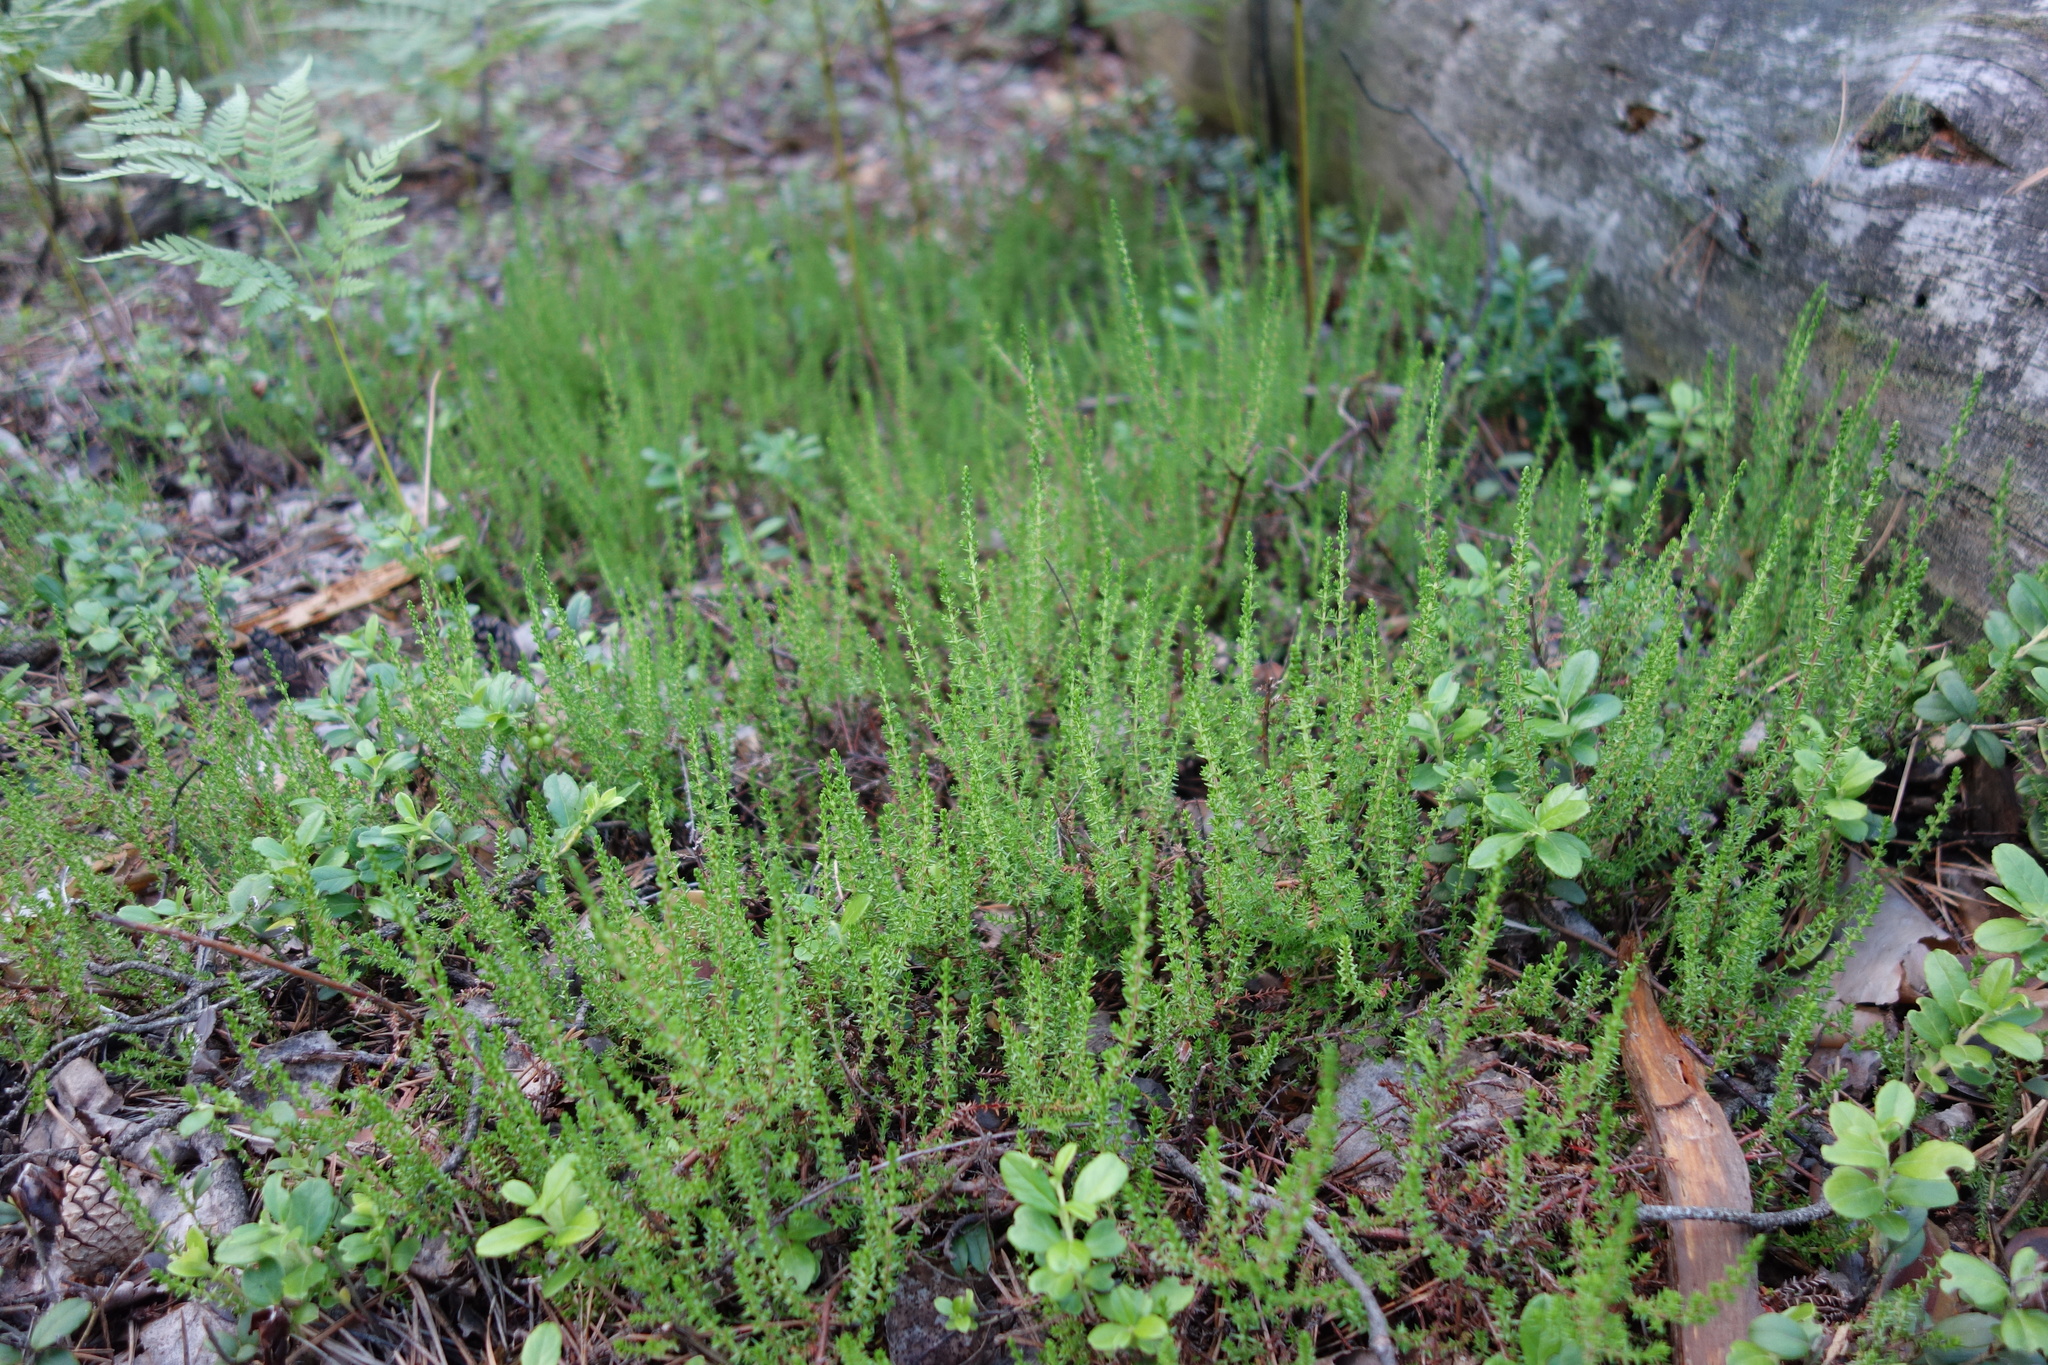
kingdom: Plantae
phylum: Tracheophyta
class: Magnoliopsida
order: Ericales
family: Ericaceae
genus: Calluna
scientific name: Calluna vulgaris
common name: Heather
